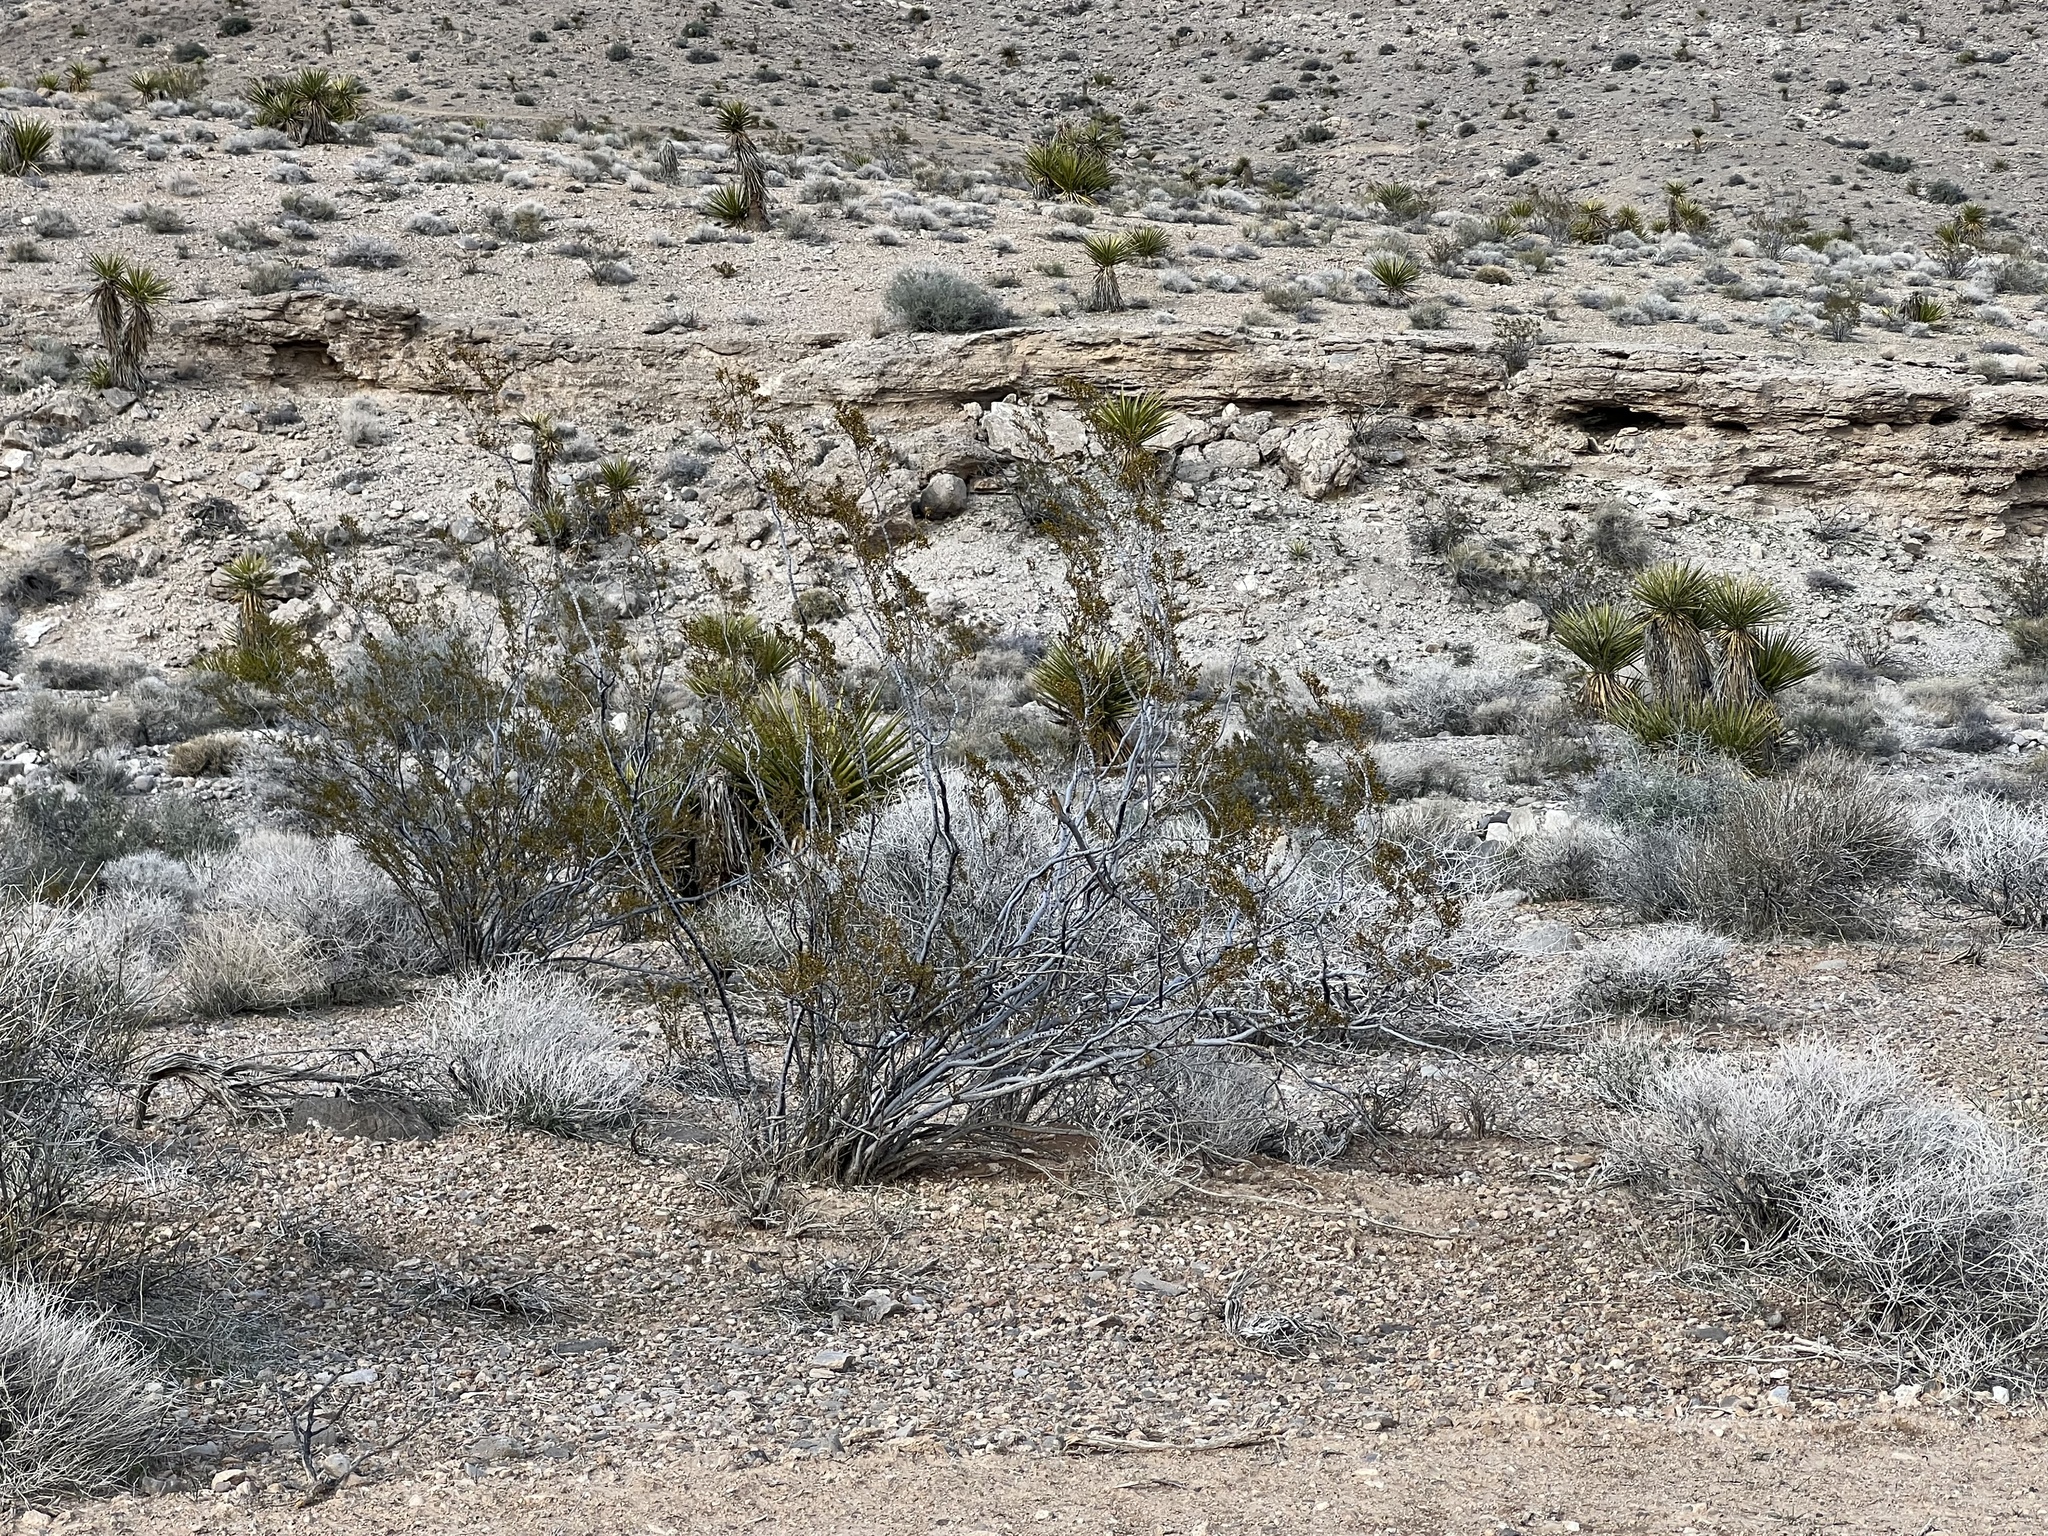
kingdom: Plantae
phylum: Tracheophyta
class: Magnoliopsida
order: Zygophyllales
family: Zygophyllaceae
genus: Larrea
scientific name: Larrea tridentata
